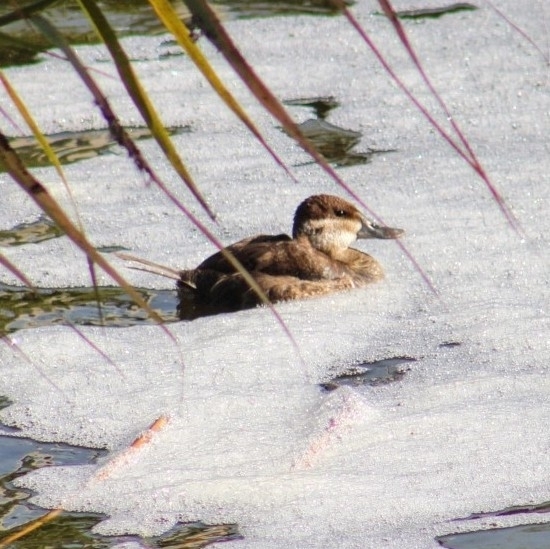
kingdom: Animalia
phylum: Chordata
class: Aves
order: Anseriformes
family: Anatidae
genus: Oxyura
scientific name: Oxyura jamaicensis
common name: Ruddy duck
